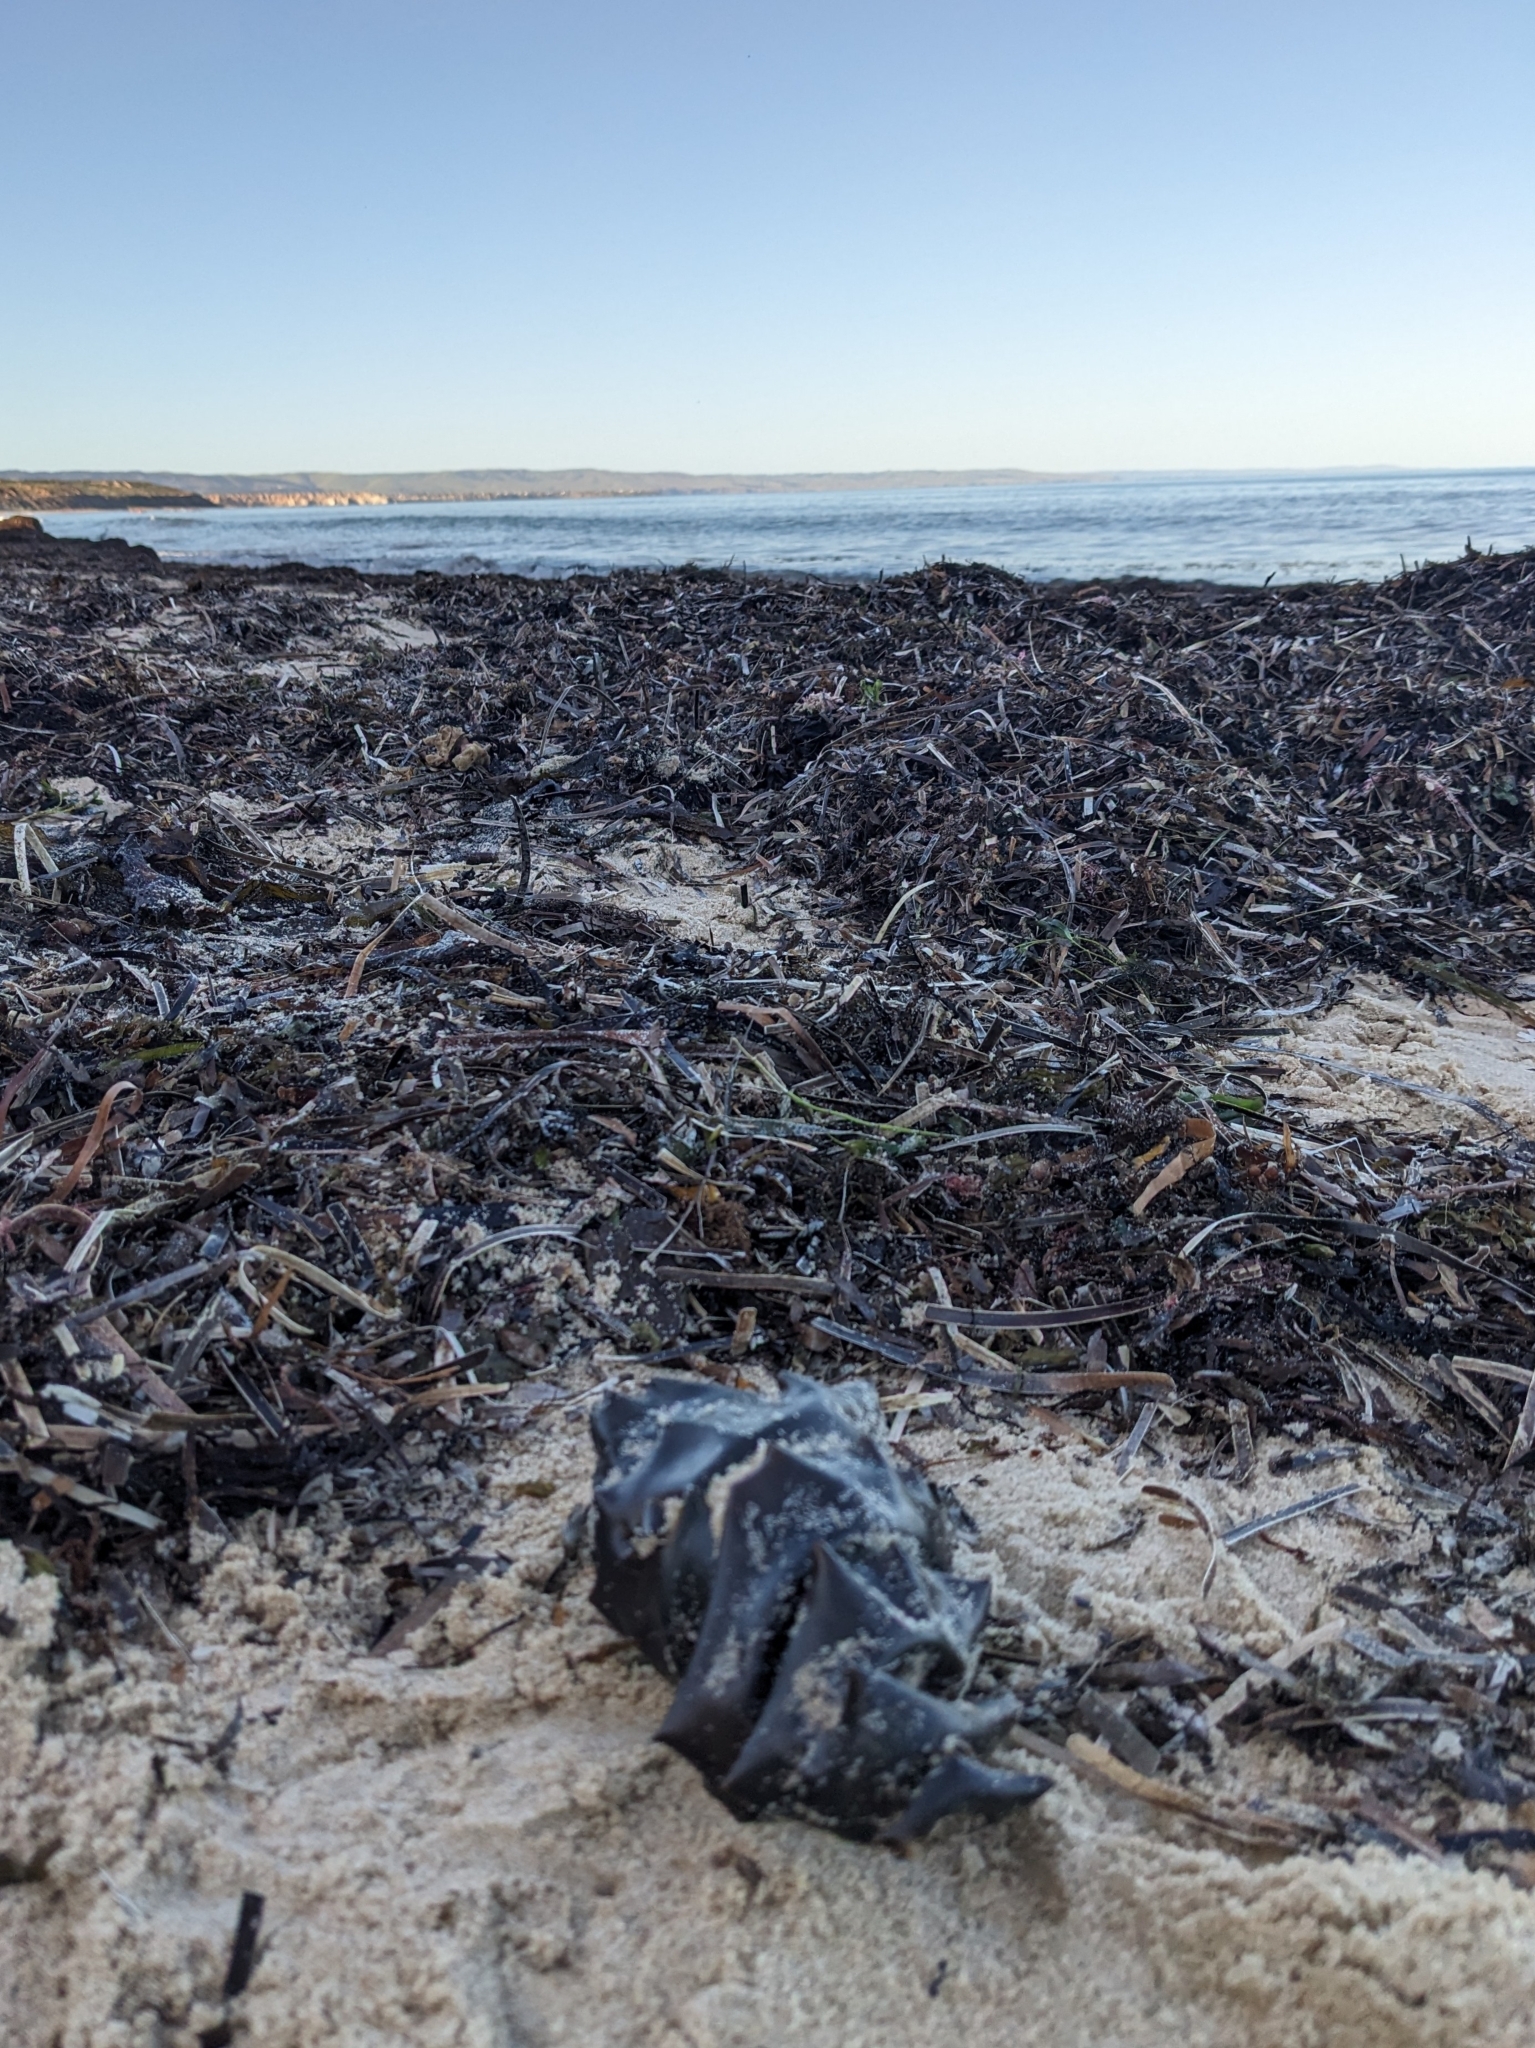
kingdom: Animalia
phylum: Chordata
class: Elasmobranchii
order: Heterodontiformes
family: Heterodontidae
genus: Heterodontus
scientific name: Heterodontus portusjacksoni
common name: Port jackson shark
